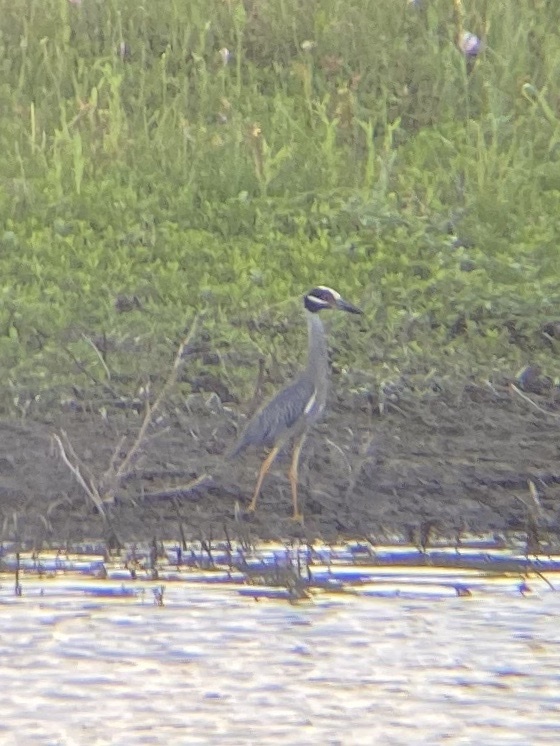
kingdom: Animalia
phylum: Chordata
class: Aves
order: Pelecaniformes
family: Ardeidae
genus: Nyctanassa
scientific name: Nyctanassa violacea
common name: Yellow-crowned night heron
